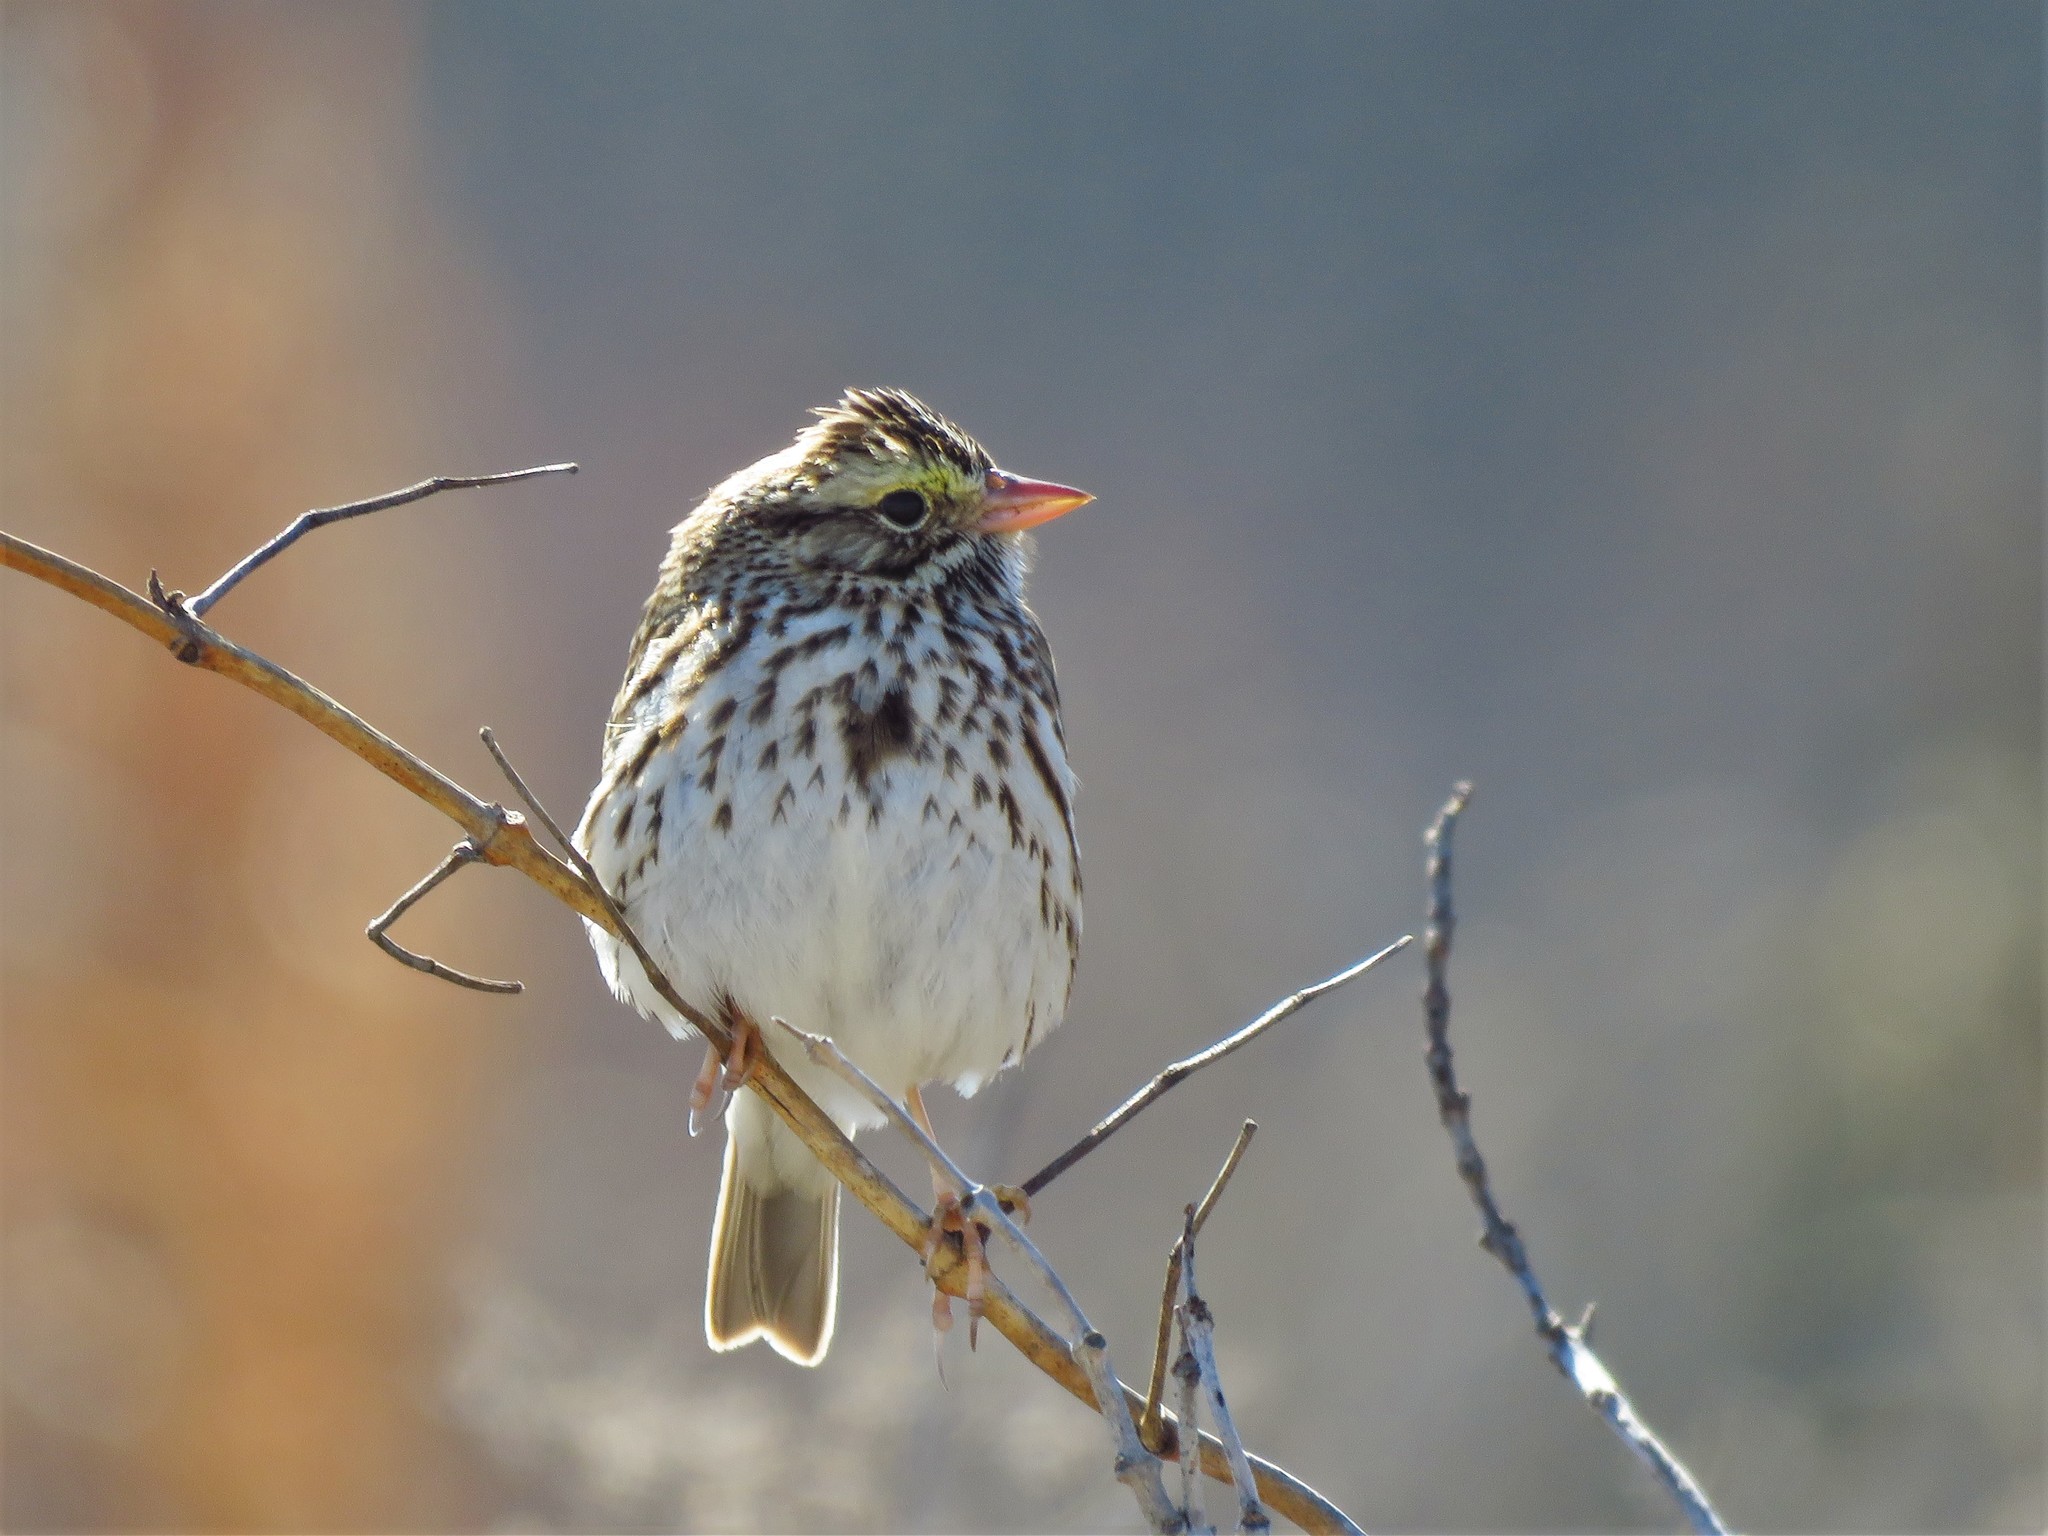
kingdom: Animalia
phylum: Chordata
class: Aves
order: Passeriformes
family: Passerellidae
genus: Passerculus
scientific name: Passerculus sandwichensis
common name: Savannah sparrow
